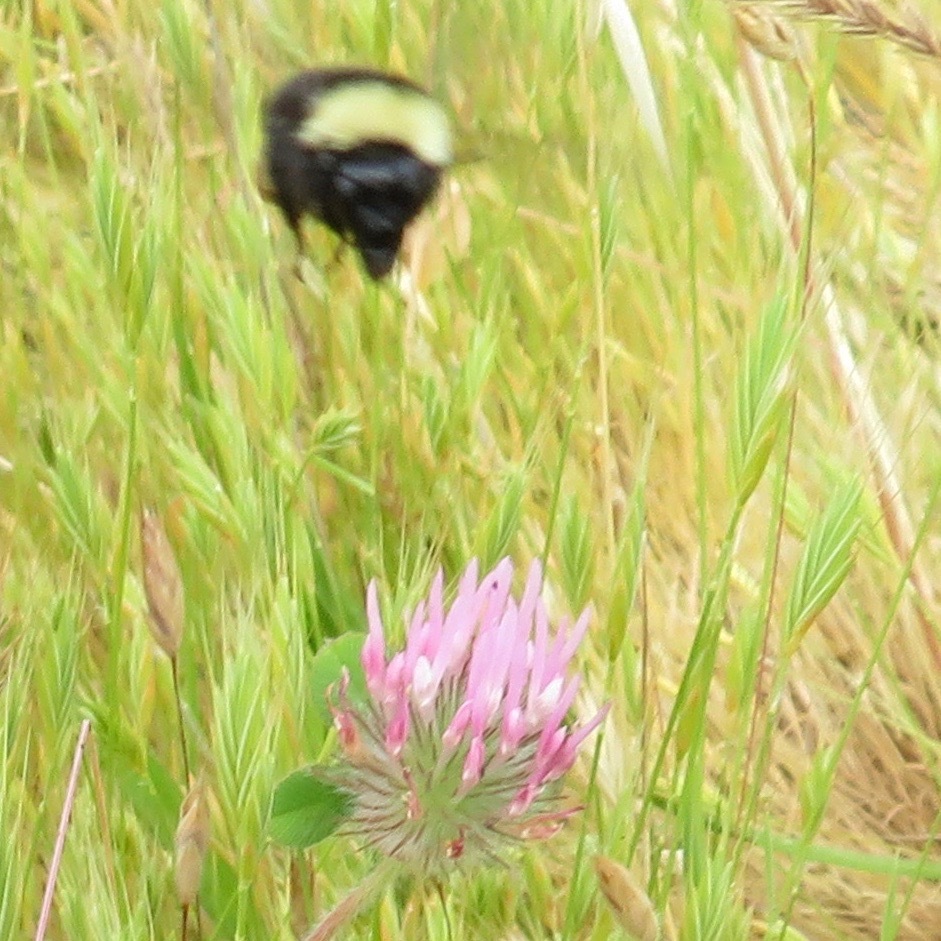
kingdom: Animalia
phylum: Arthropoda
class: Insecta
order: Hymenoptera
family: Apidae
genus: Bombus
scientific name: Bombus californicus
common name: California bumble bee
